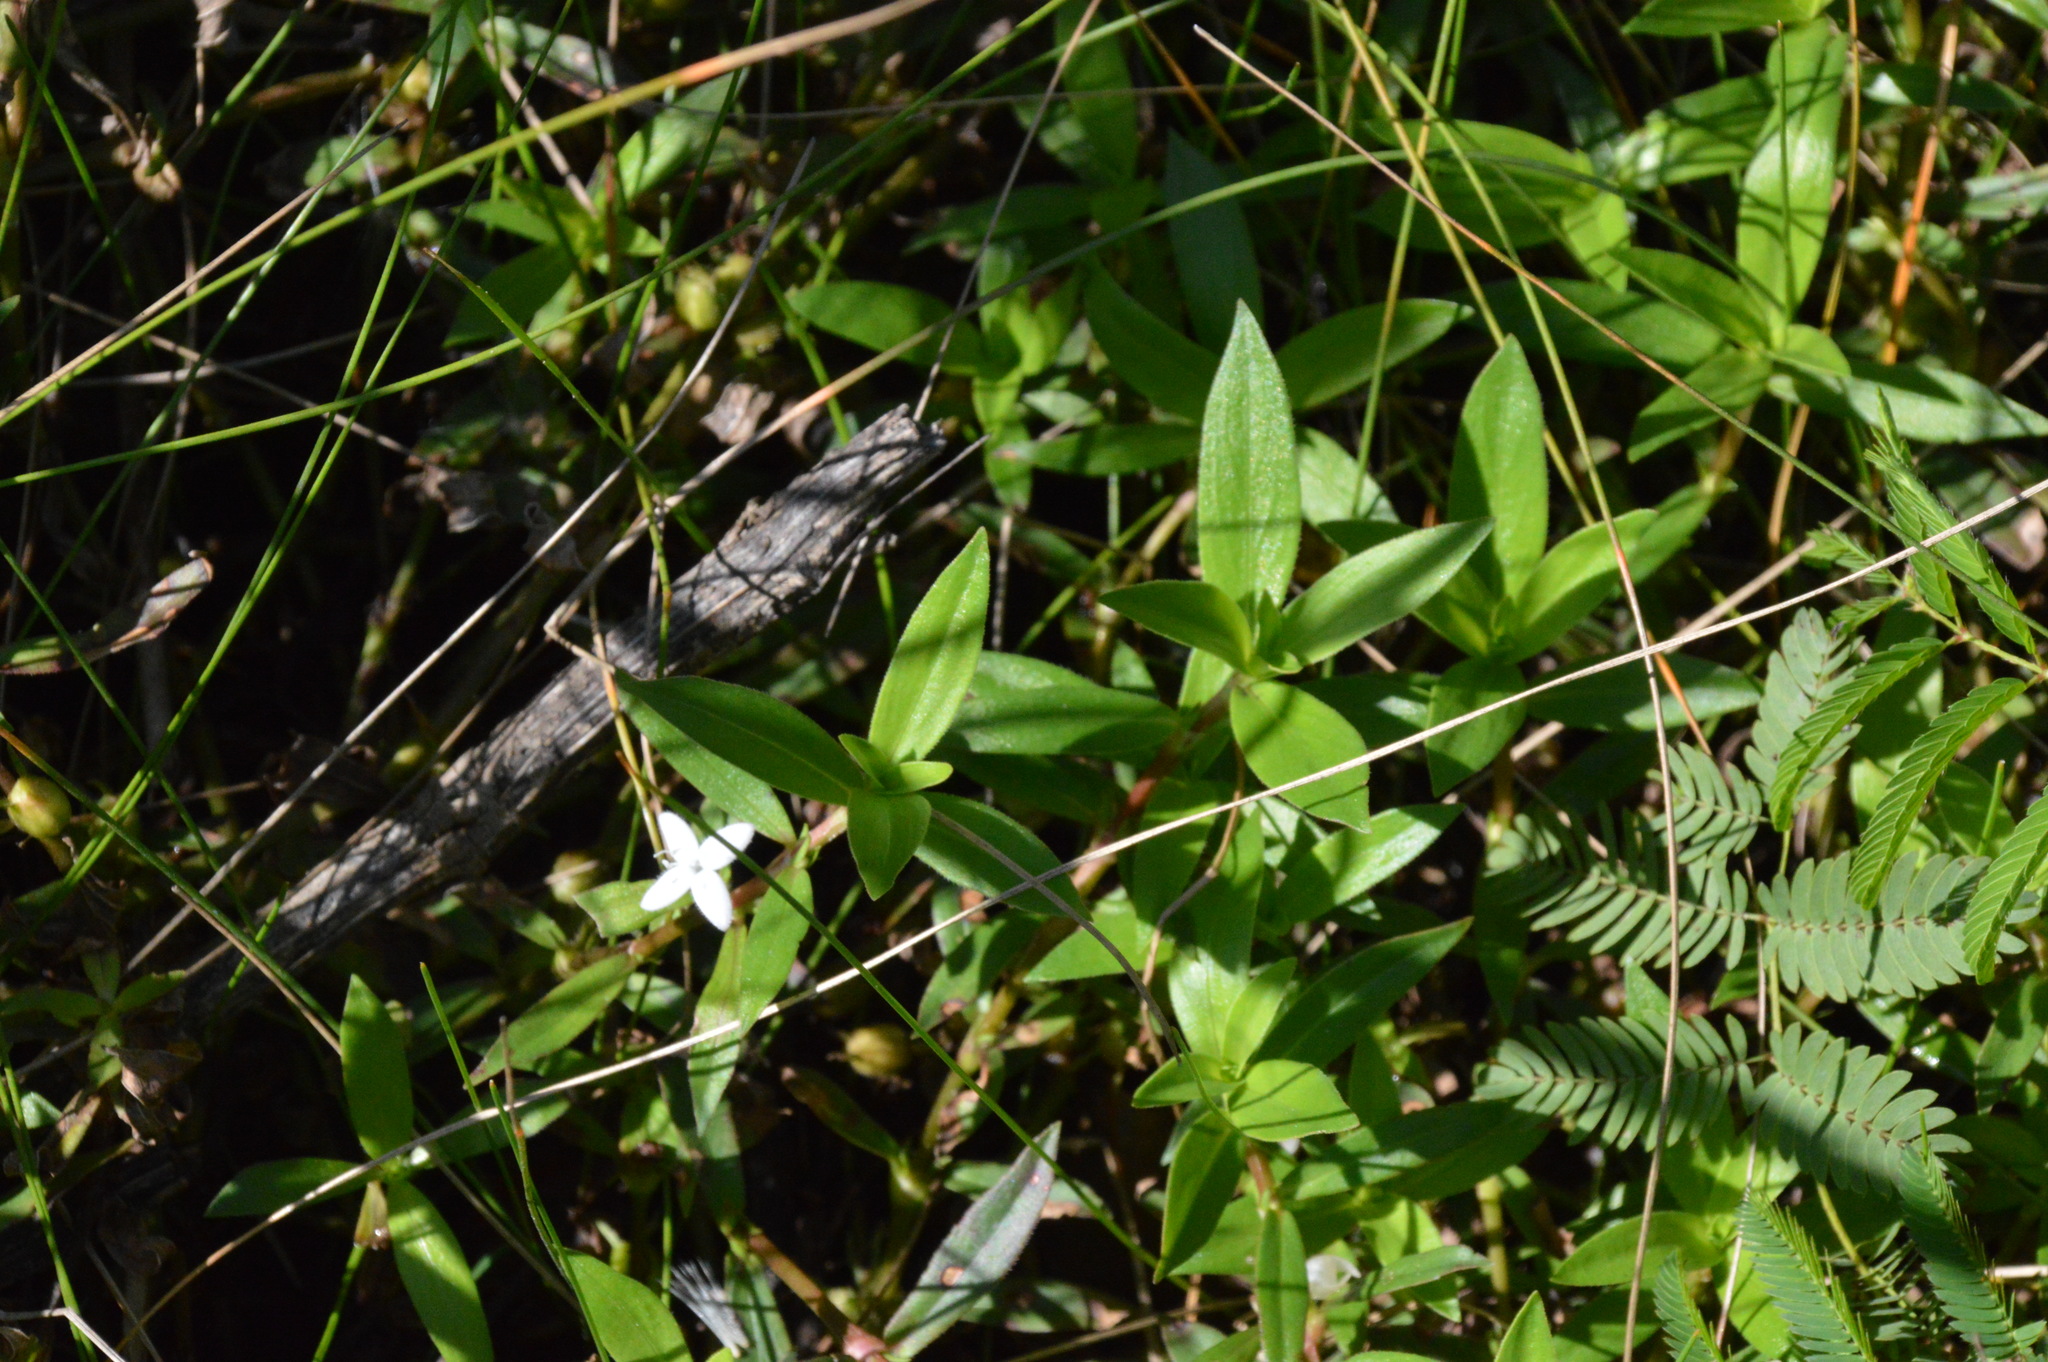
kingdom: Plantae
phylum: Tracheophyta
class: Magnoliopsida
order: Gentianales
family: Rubiaceae
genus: Diodia
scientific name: Diodia virginiana
